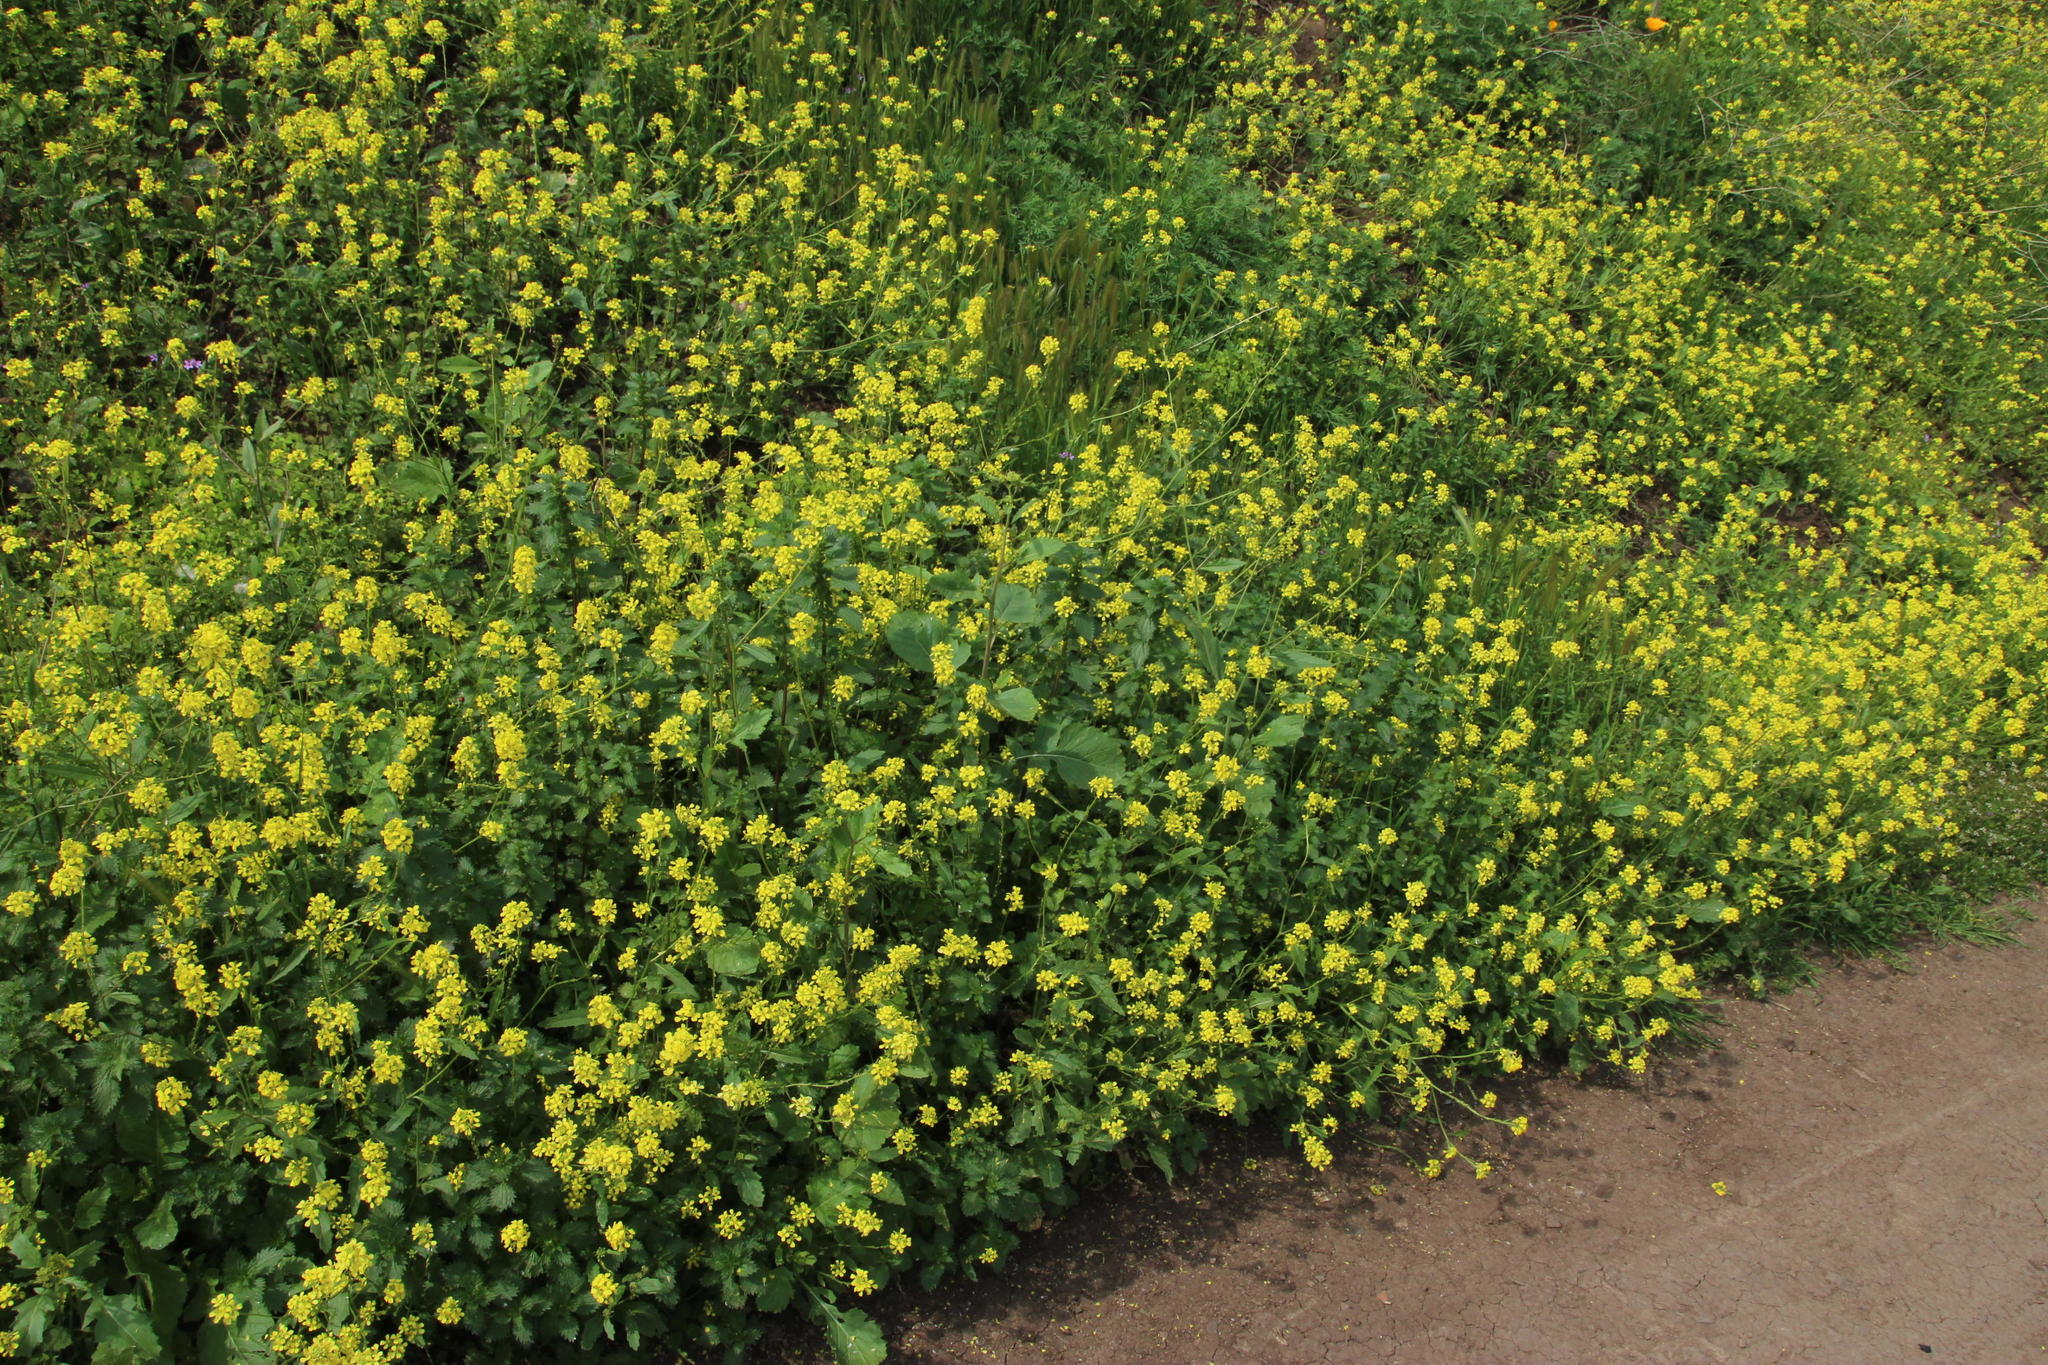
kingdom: Plantae
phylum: Tracheophyta
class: Magnoliopsida
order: Brassicales
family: Brassicaceae
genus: Rapistrum
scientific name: Rapistrum rugosum
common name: Annual bastardcabbage
